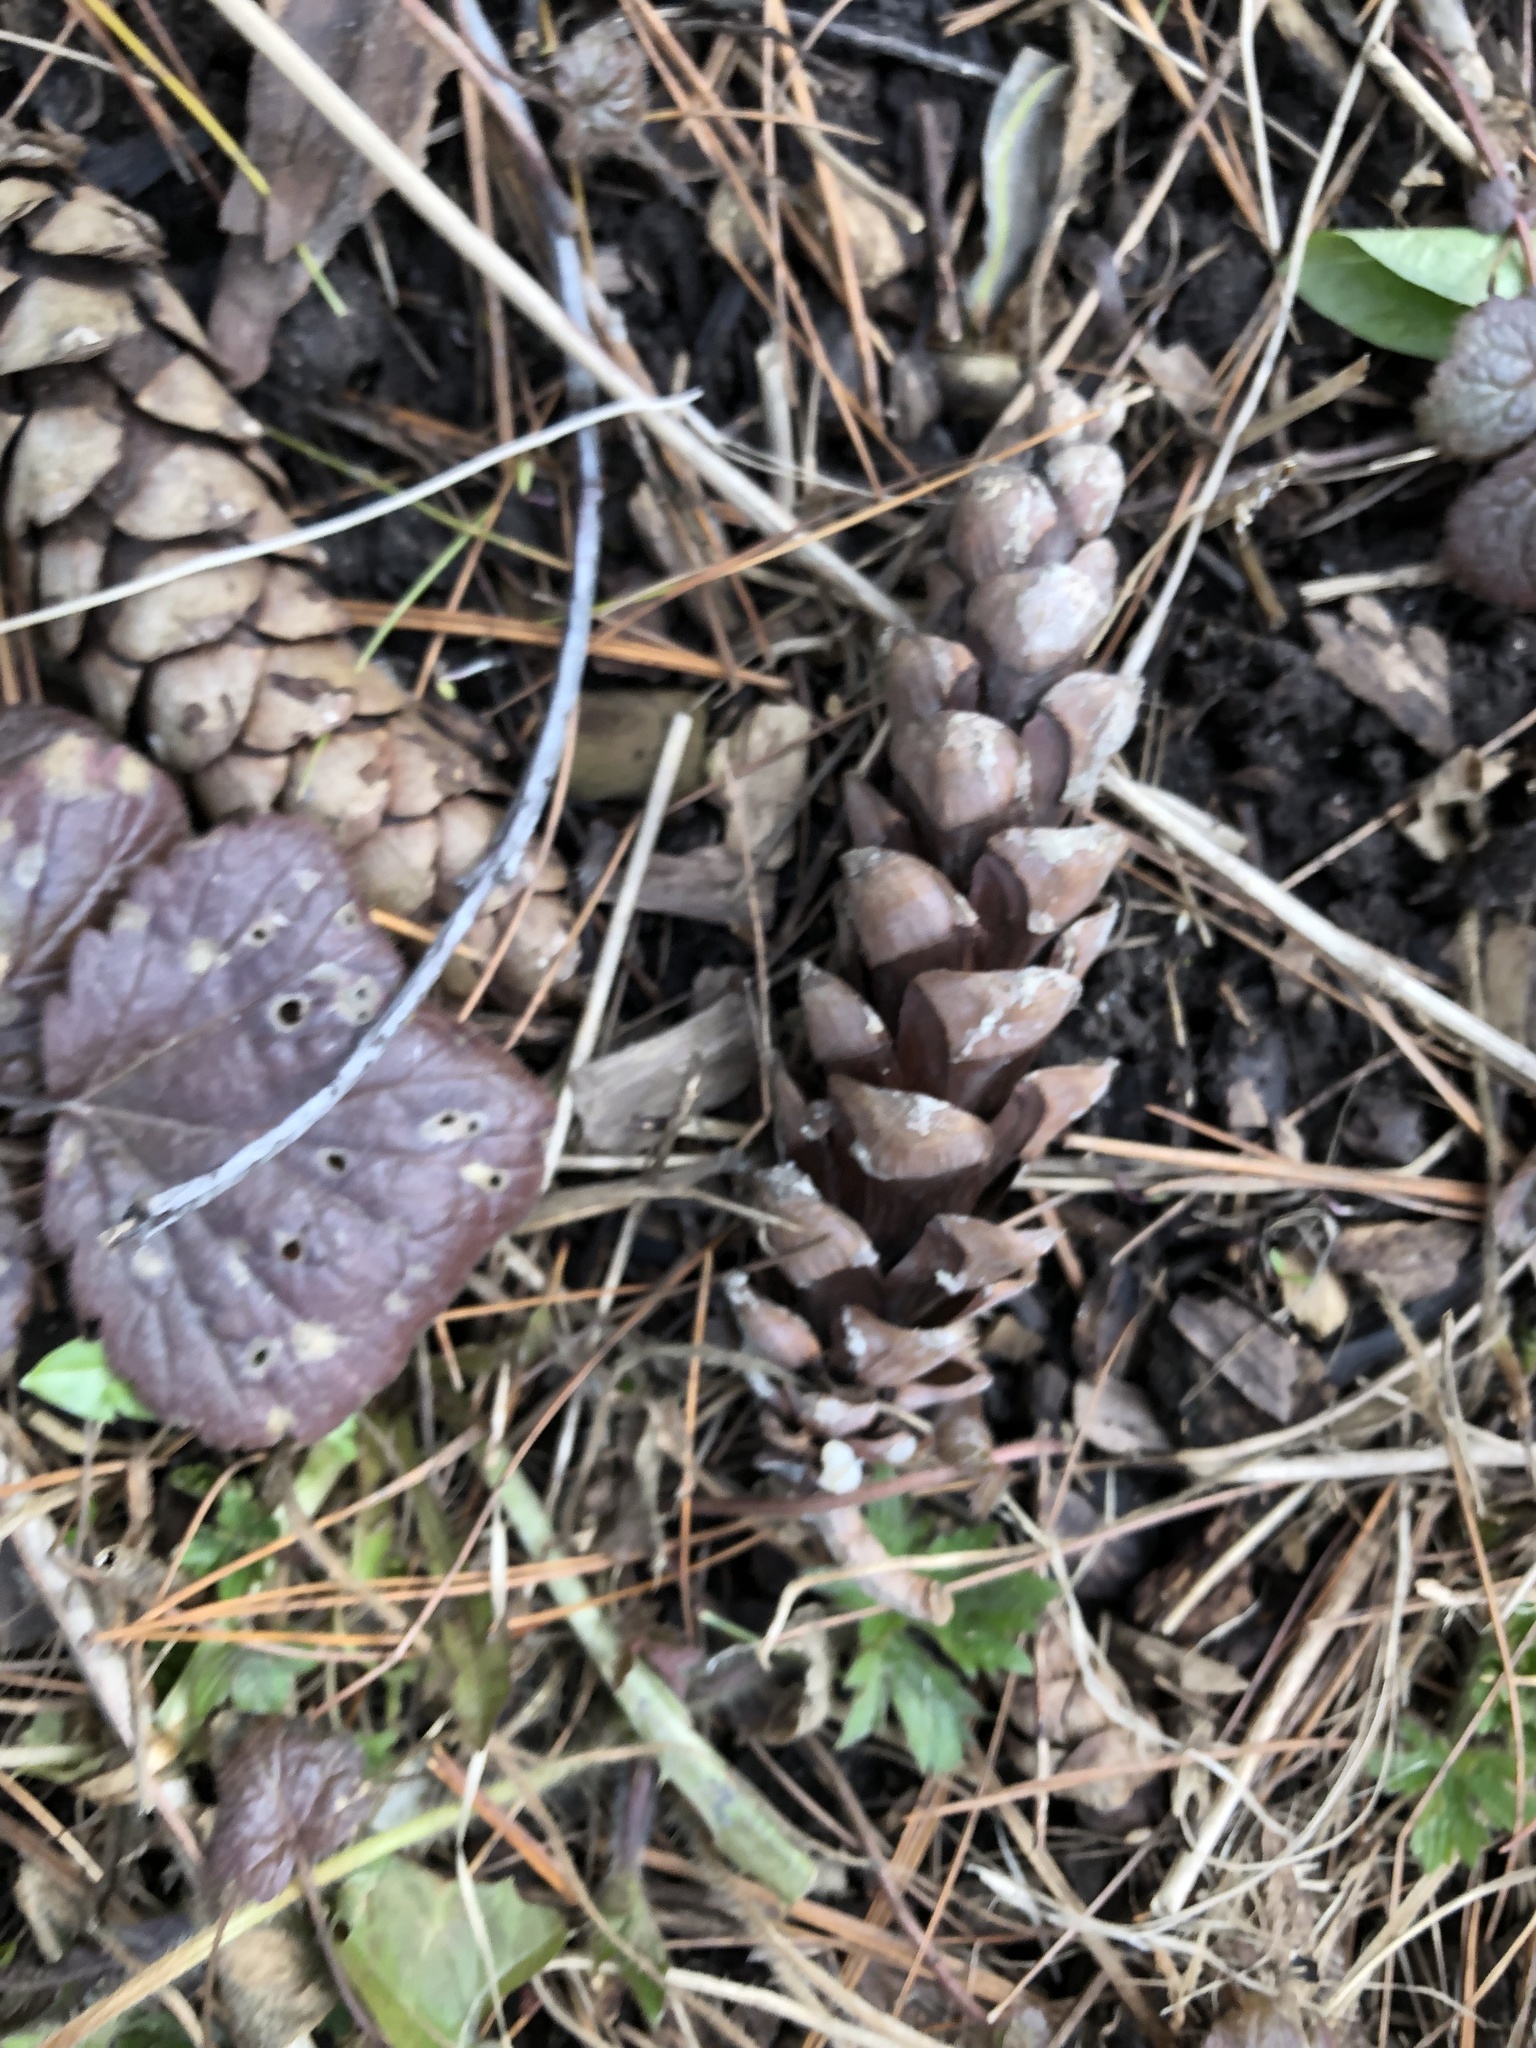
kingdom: Plantae
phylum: Tracheophyta
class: Pinopsida
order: Pinales
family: Pinaceae
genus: Pinus
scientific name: Pinus strobus
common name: Weymouth pine
